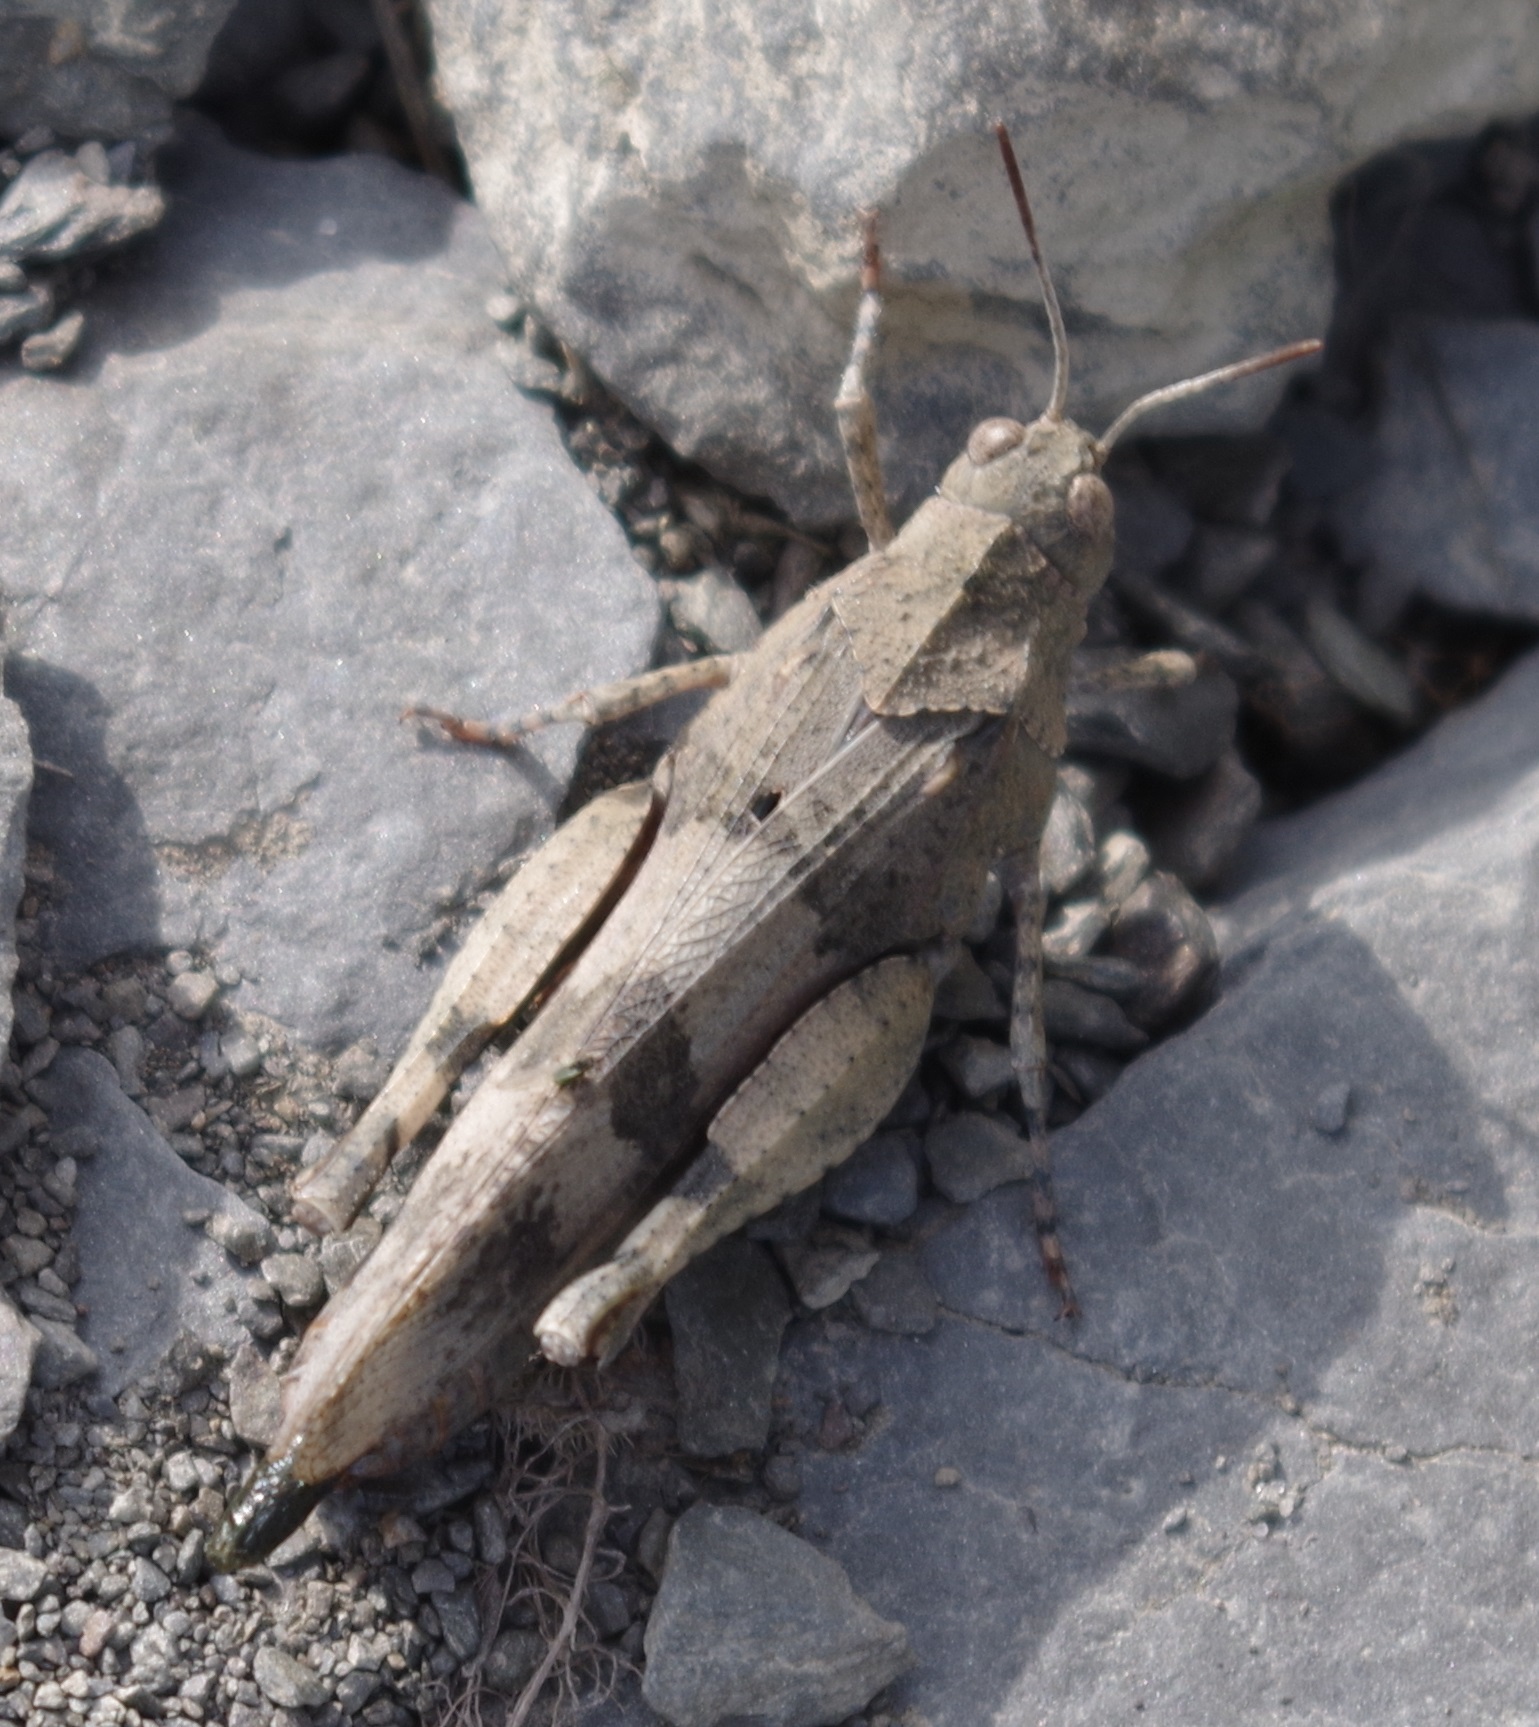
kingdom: Animalia
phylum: Arthropoda
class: Insecta
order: Orthoptera
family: Acrididae
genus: Oedipoda
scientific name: Oedipoda caerulescens
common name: Blue-winged grasshopper
